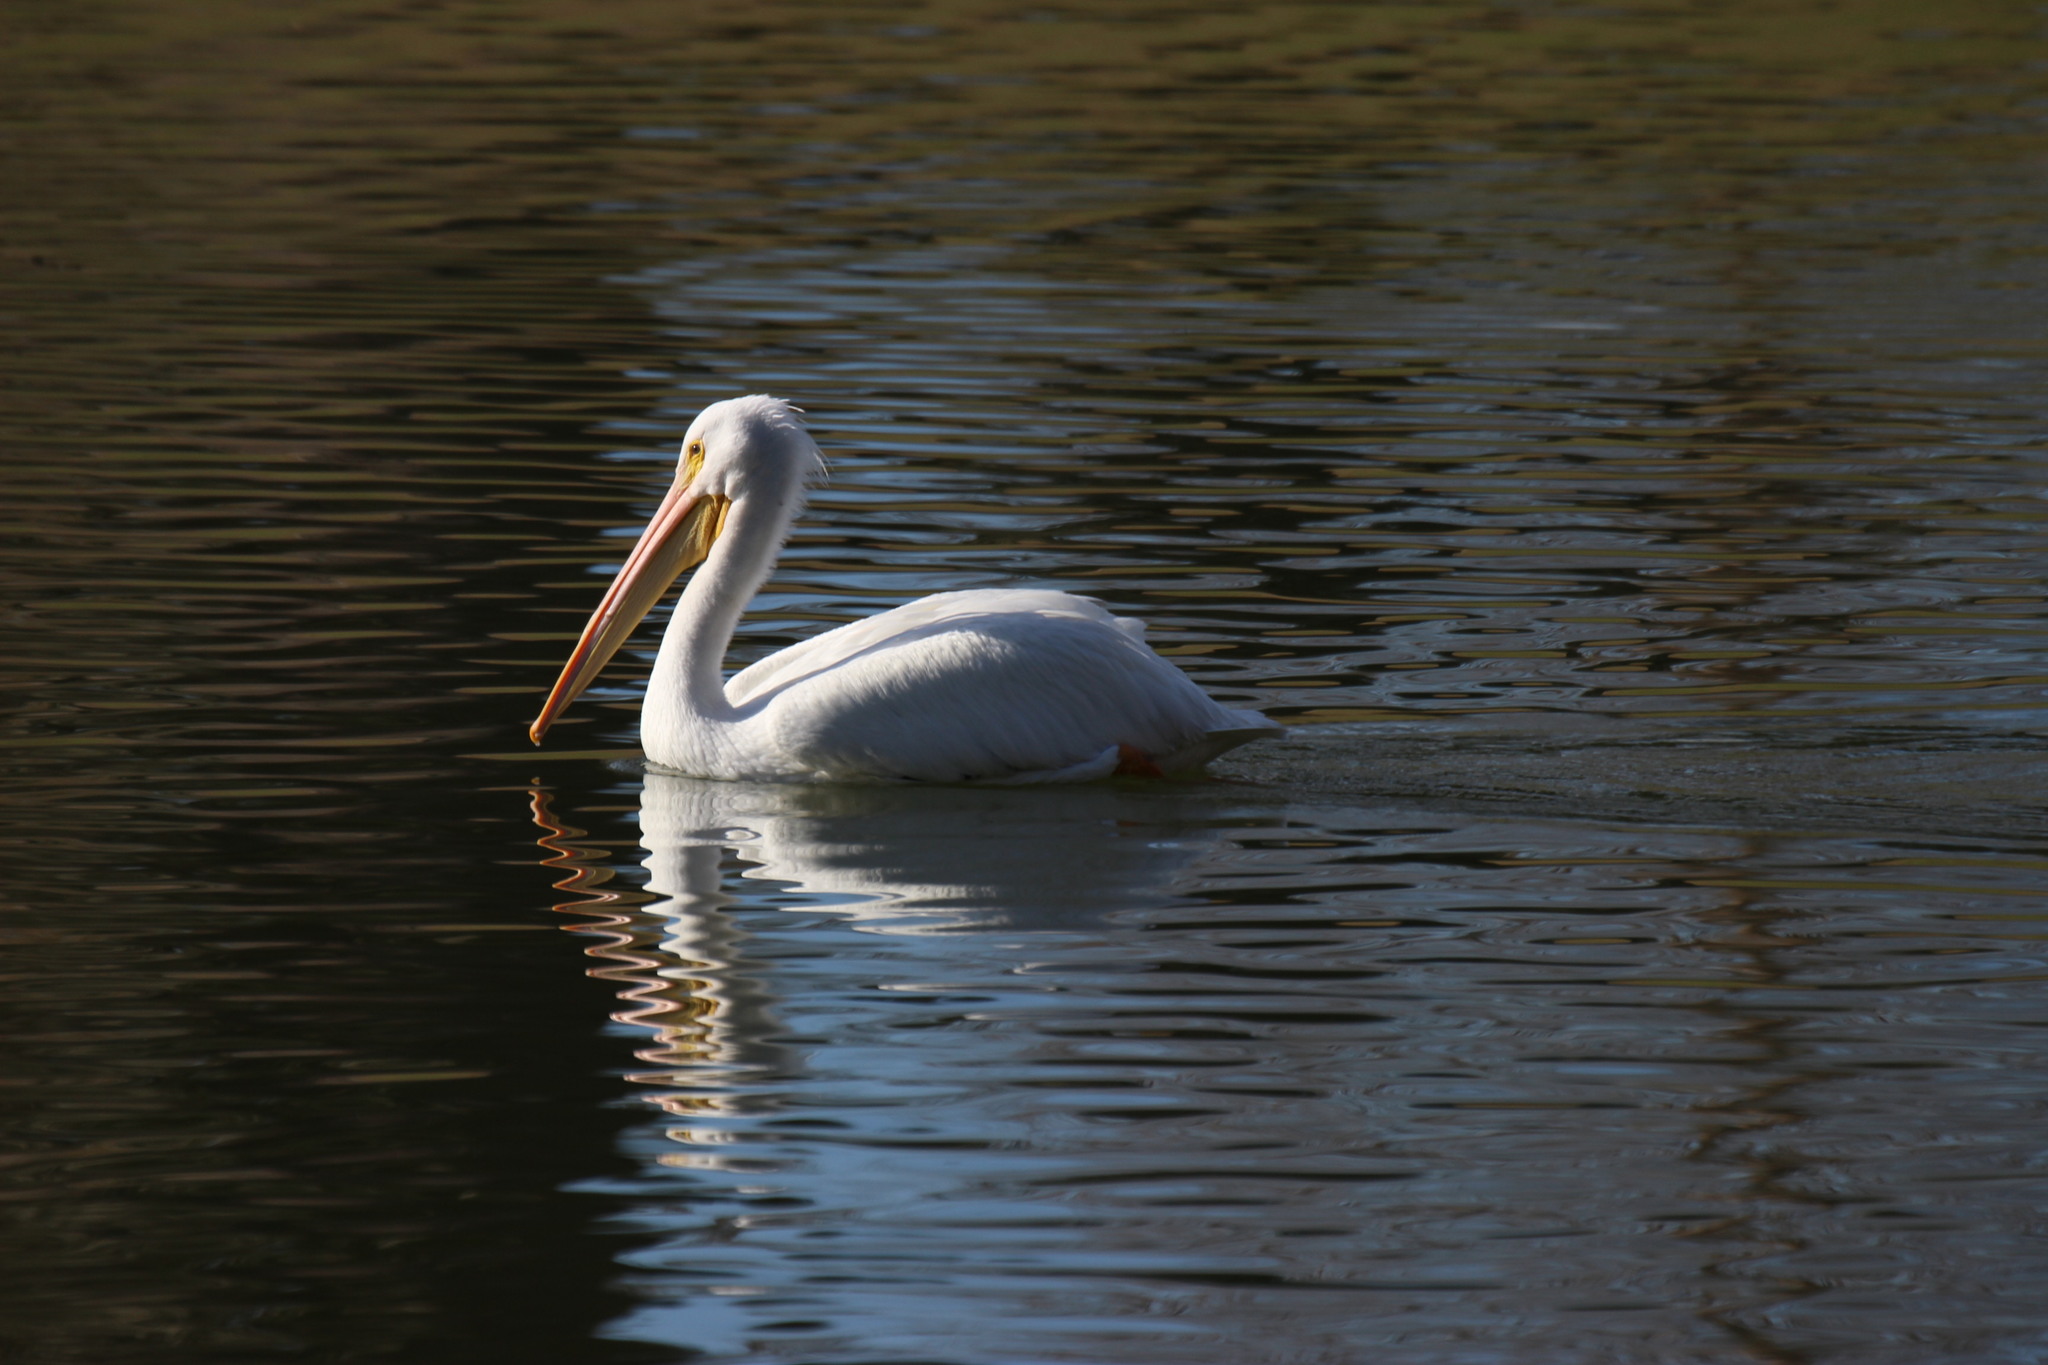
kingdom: Animalia
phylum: Chordata
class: Aves
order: Pelecaniformes
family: Pelecanidae
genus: Pelecanus
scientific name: Pelecanus erythrorhynchos
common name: American white pelican
